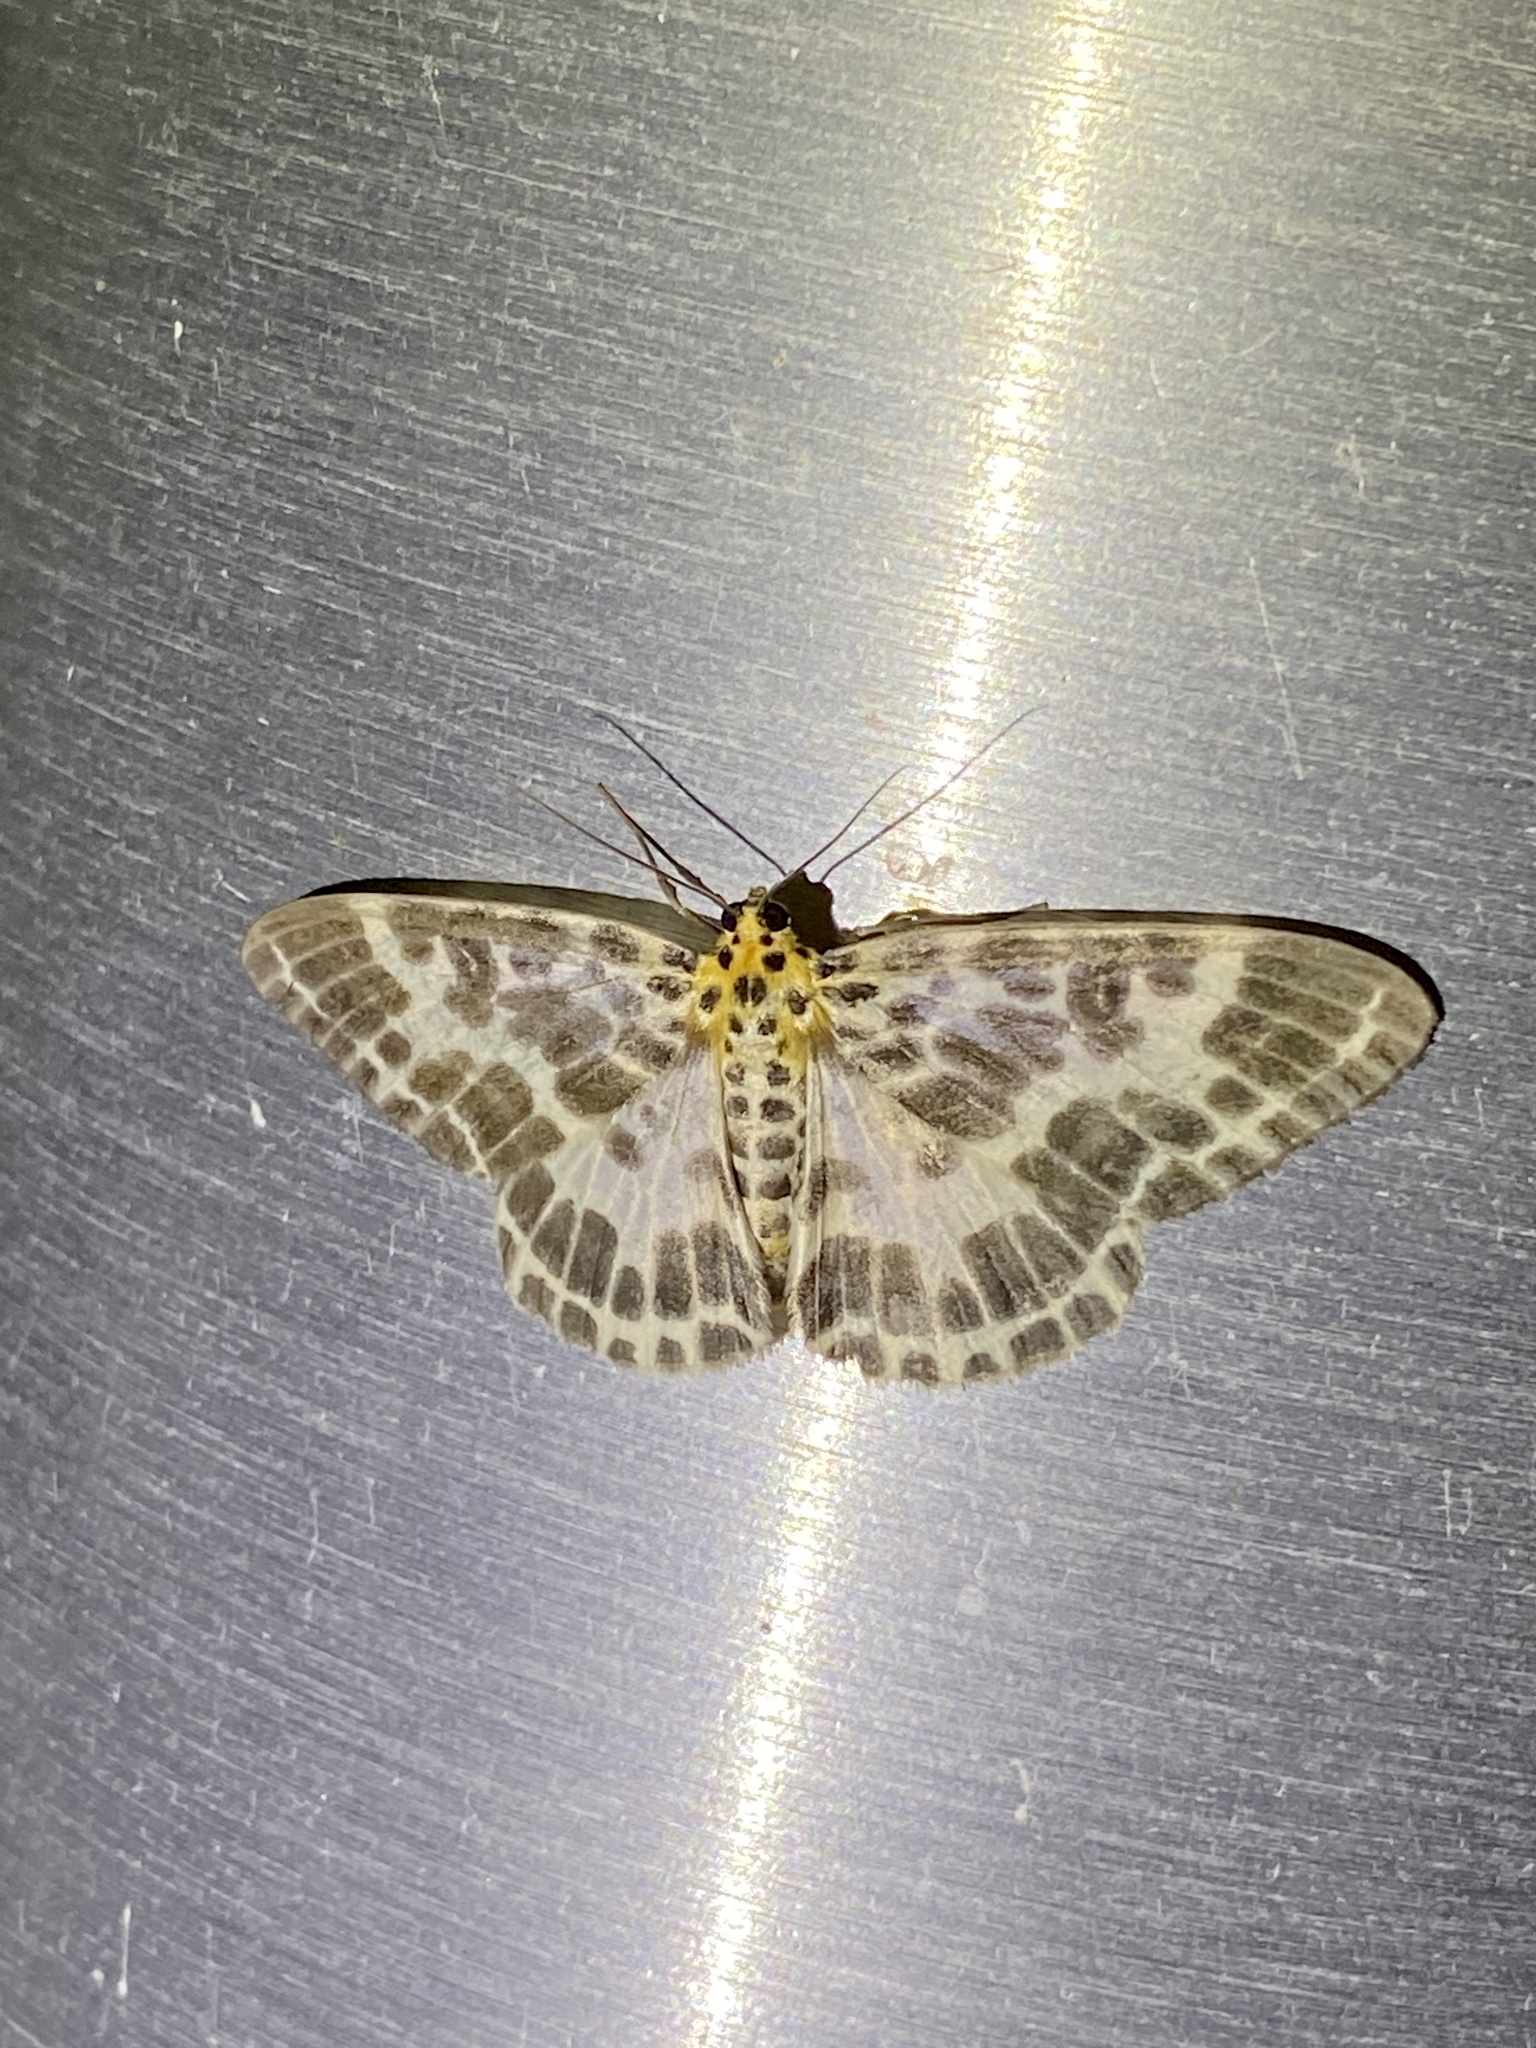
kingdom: Animalia
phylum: Arthropoda
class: Insecta
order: Lepidoptera
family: Geometridae
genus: Pogonopygia
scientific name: Pogonopygia nigralbata
